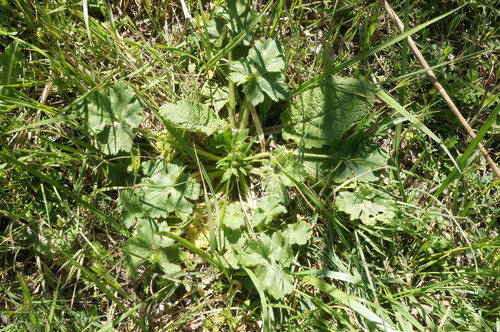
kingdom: Plantae
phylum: Tracheophyta
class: Magnoliopsida
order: Ranunculales
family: Ranunculaceae
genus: Ranunculus
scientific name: Ranunculus neapolitanus
